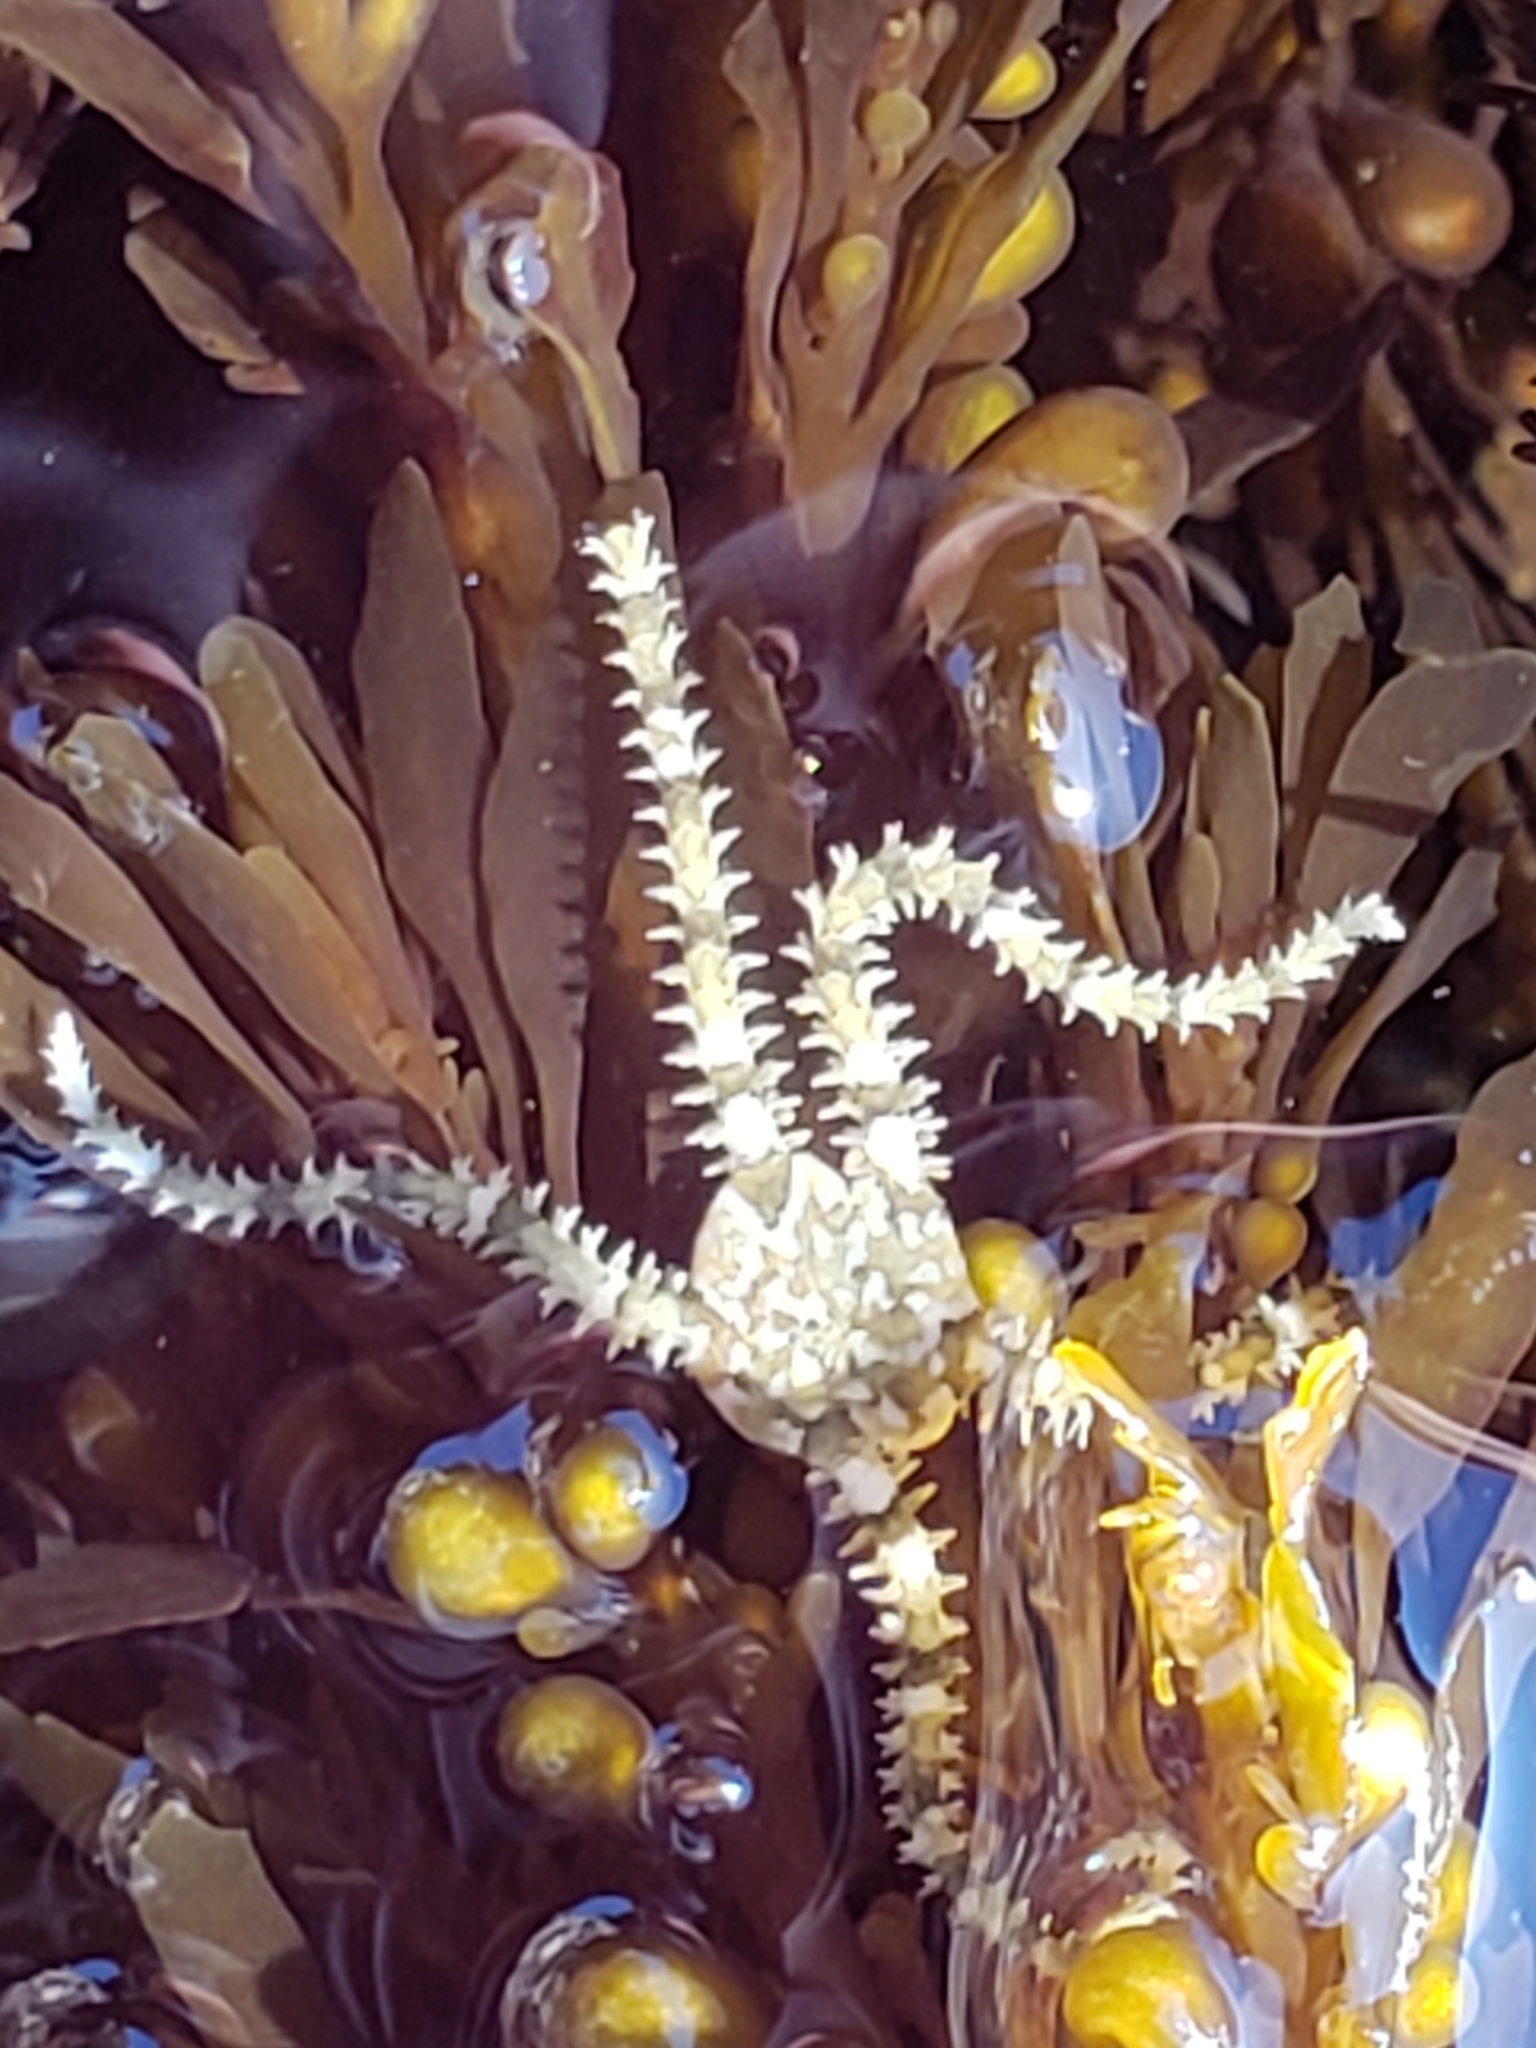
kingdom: Animalia
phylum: Echinodermata
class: Ophiuroidea
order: Amphilepidida
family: Ophionereididae
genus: Ophionereis
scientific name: Ophionereis diabloensis
